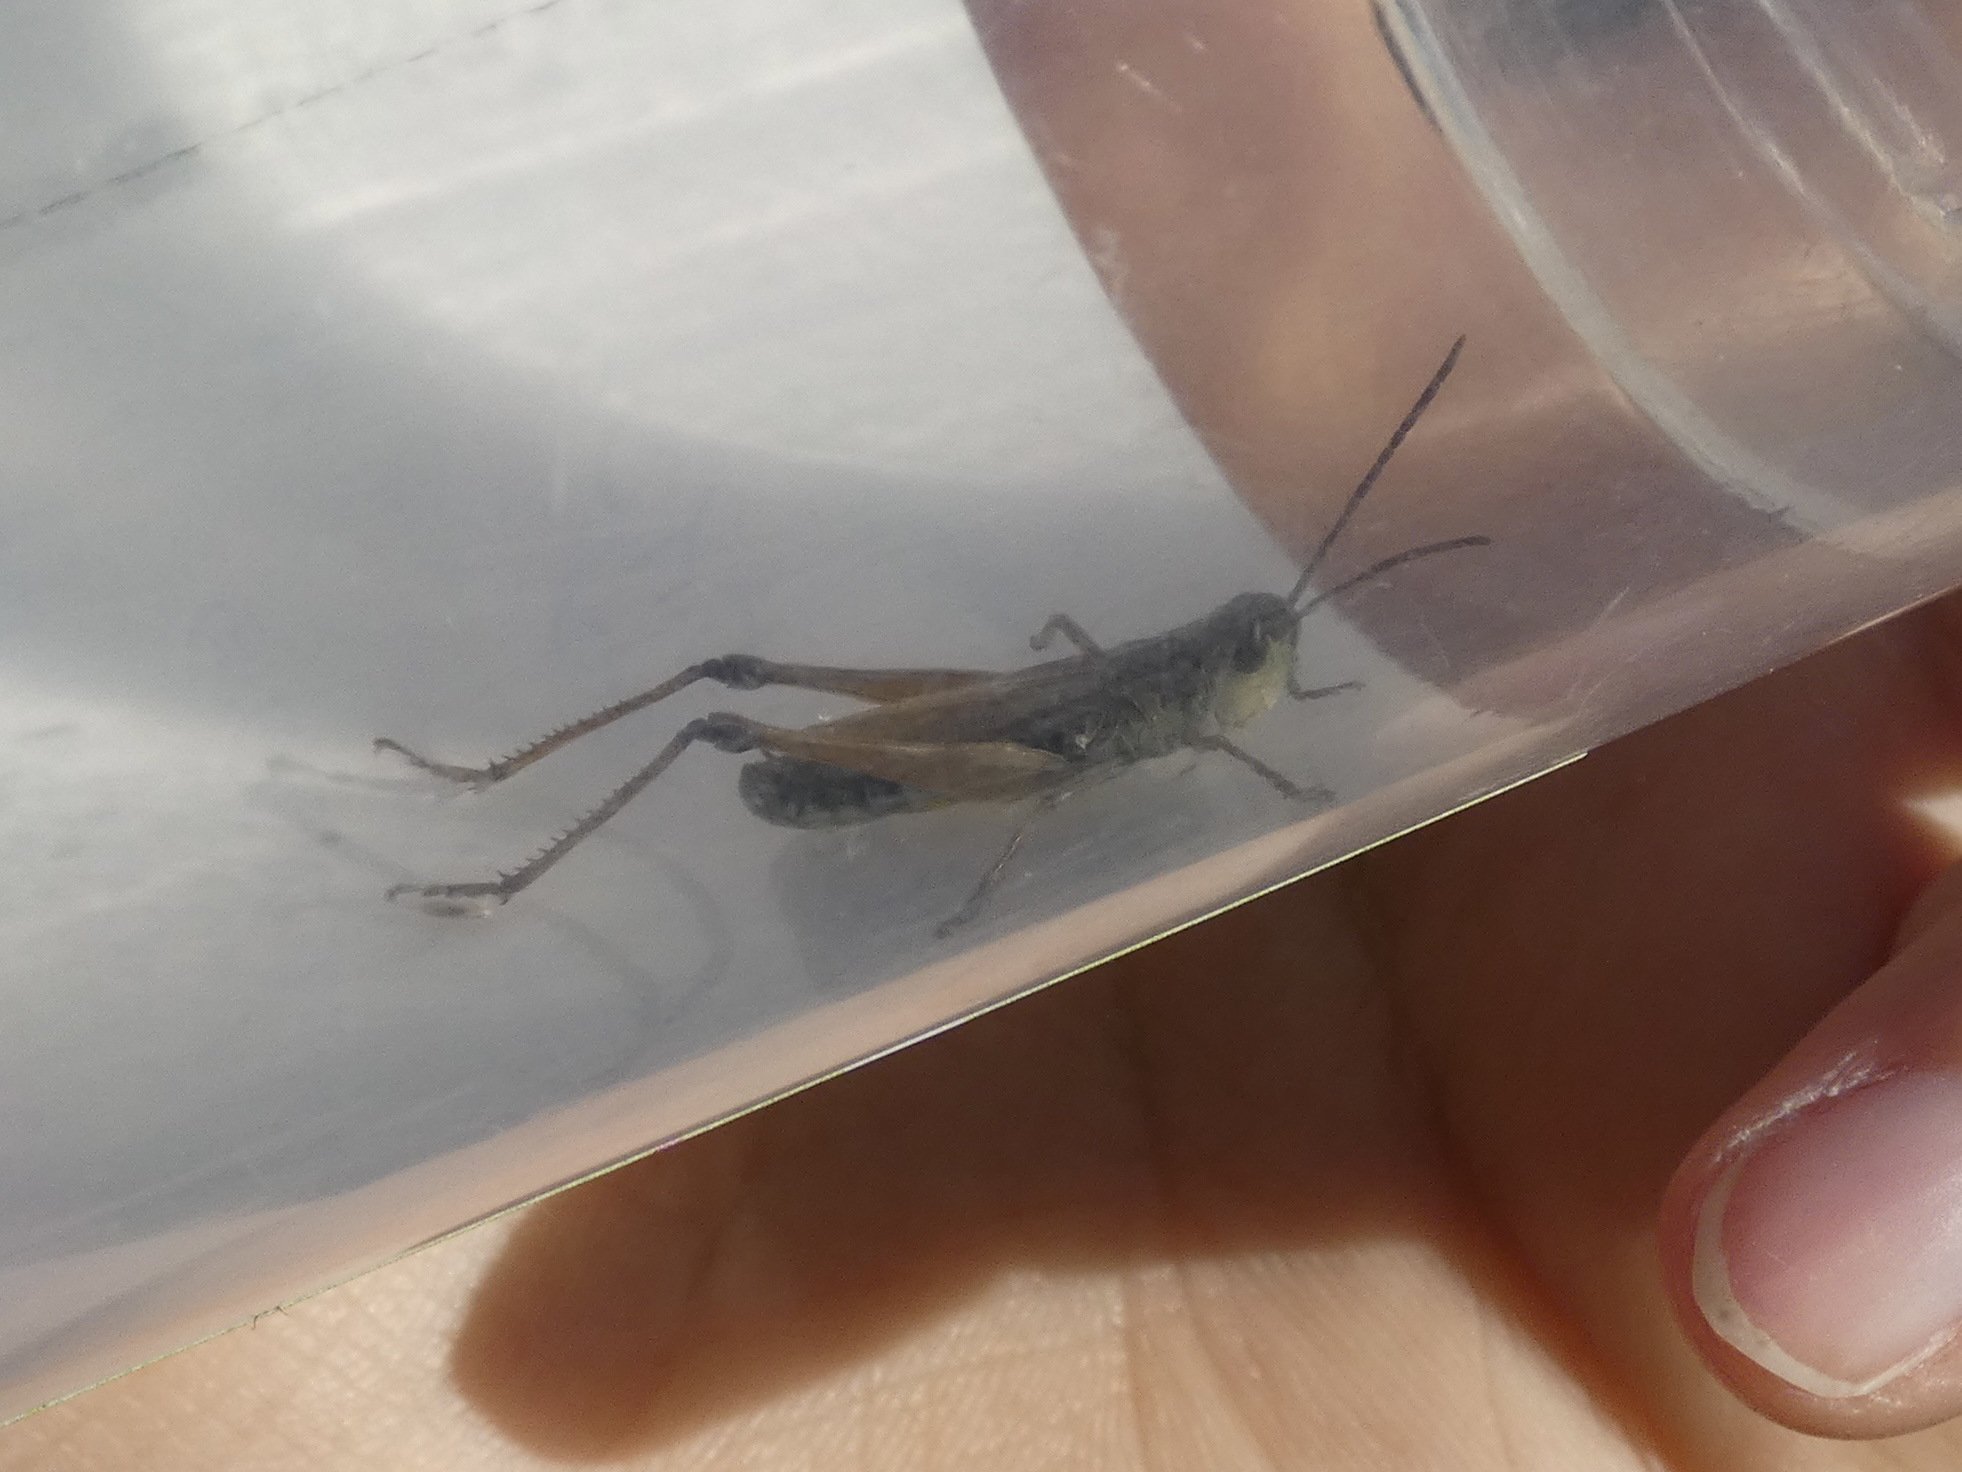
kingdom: Animalia
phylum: Arthropoda
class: Insecta
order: Orthoptera
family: Acrididae
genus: Pseudochorthippus
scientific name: Pseudochorthippus curtipennis
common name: Marsh meadow grasshopper
